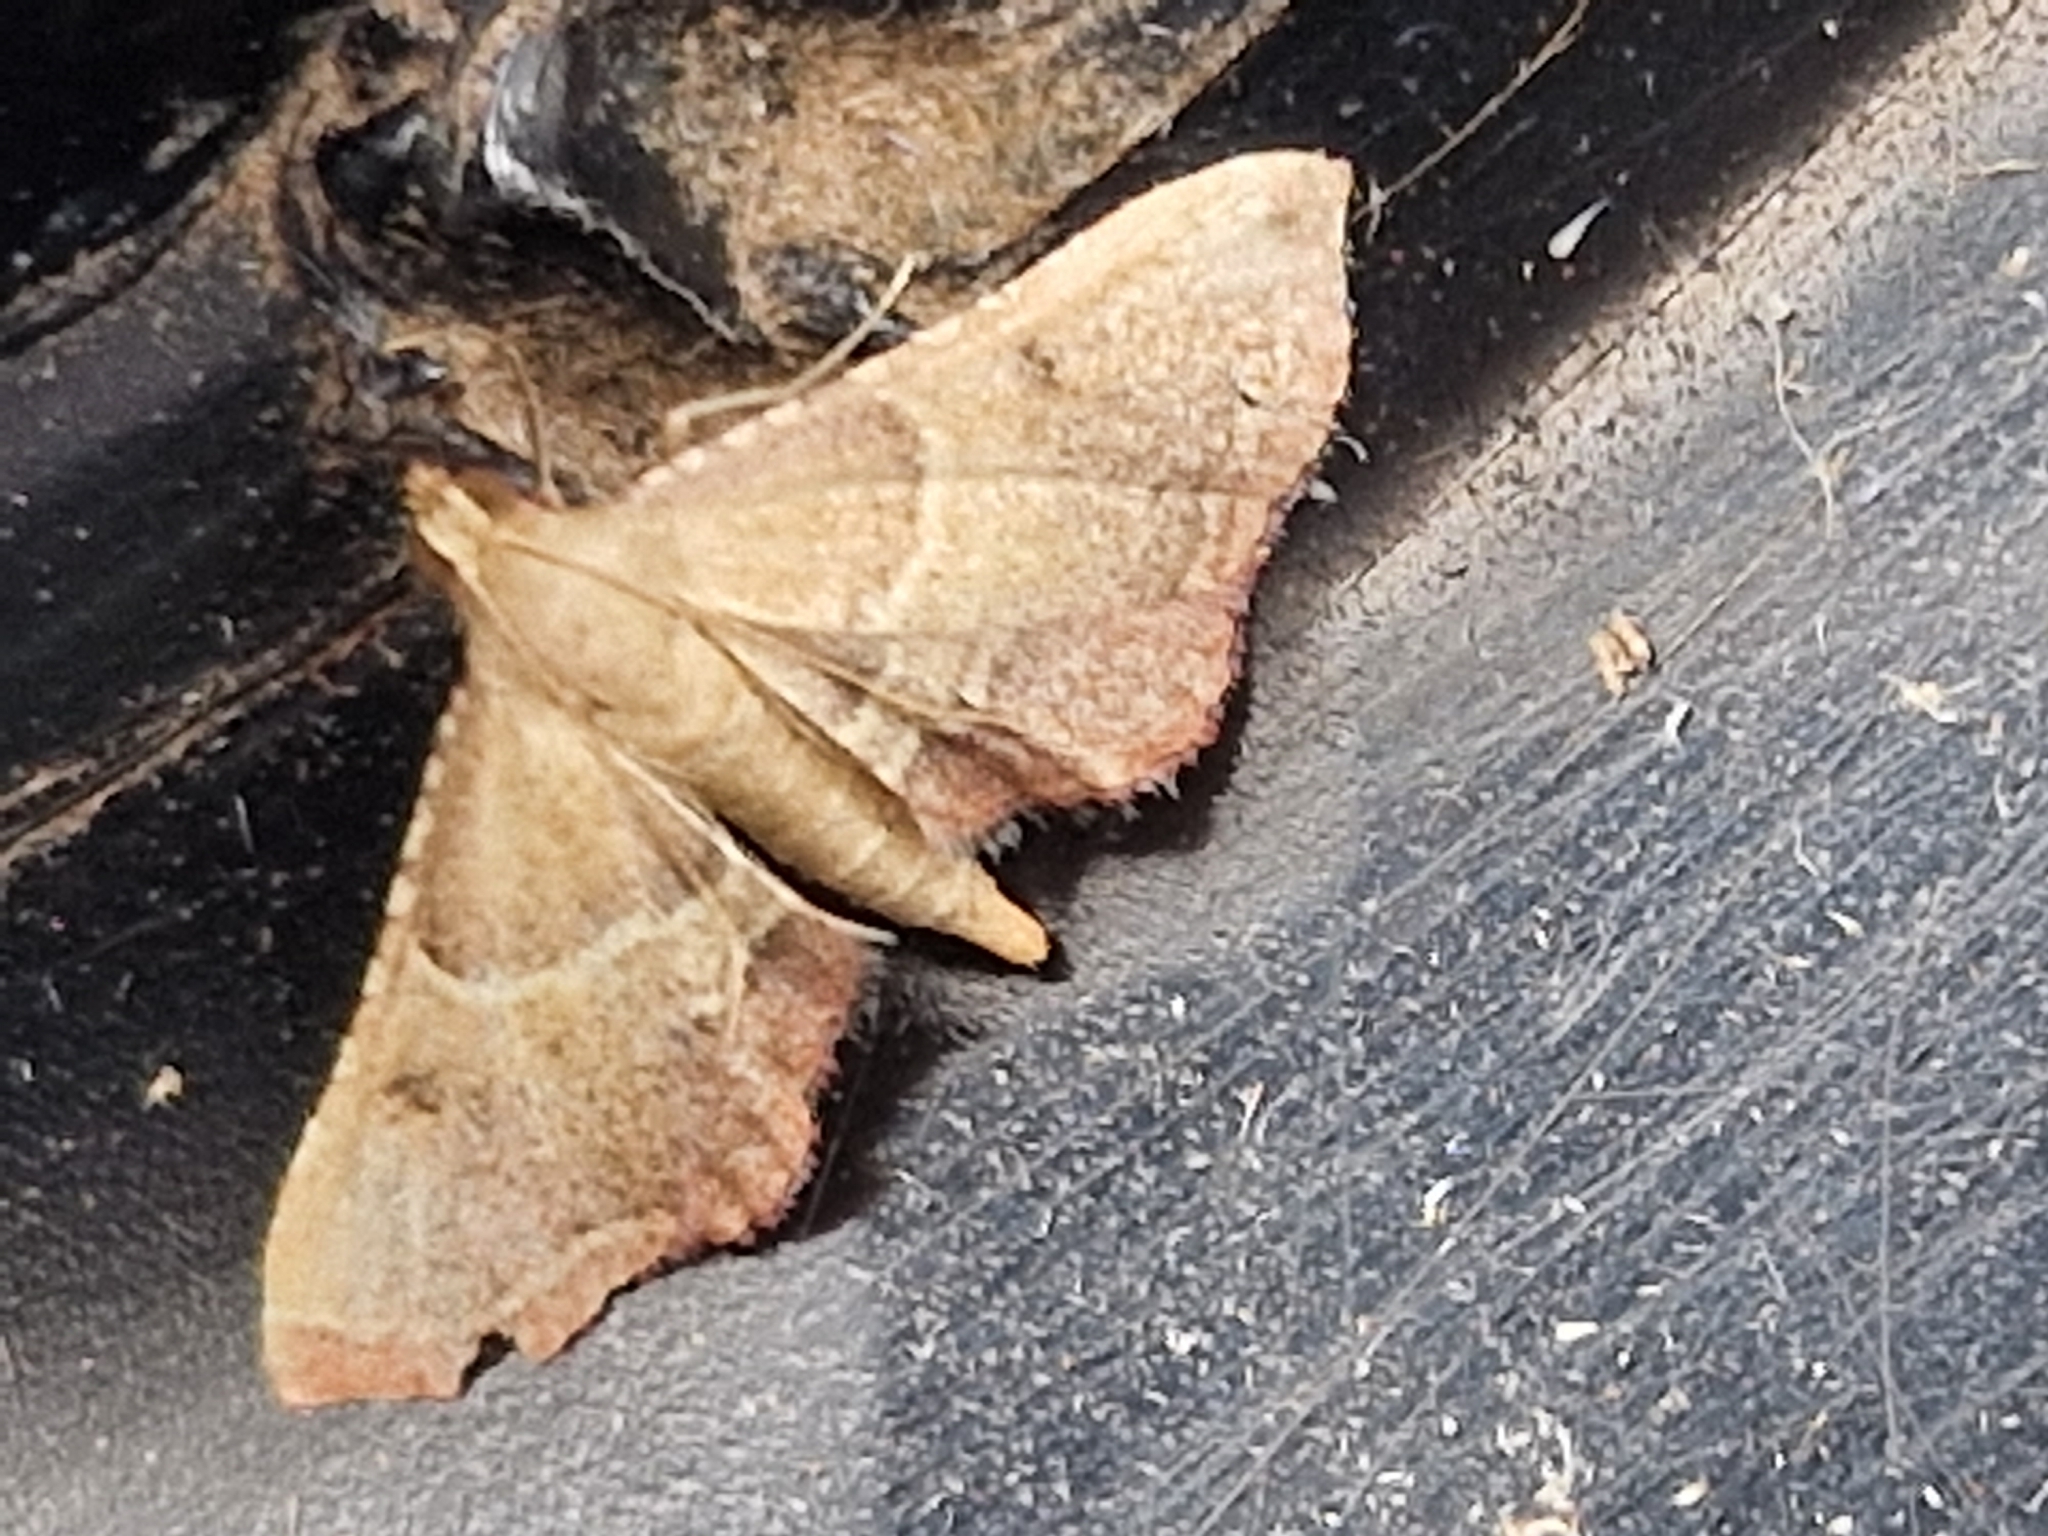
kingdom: Animalia
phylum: Arthropoda
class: Insecta
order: Lepidoptera
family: Pyralidae
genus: Endotricha
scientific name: Endotricha flammealis
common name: Rosy tabby
